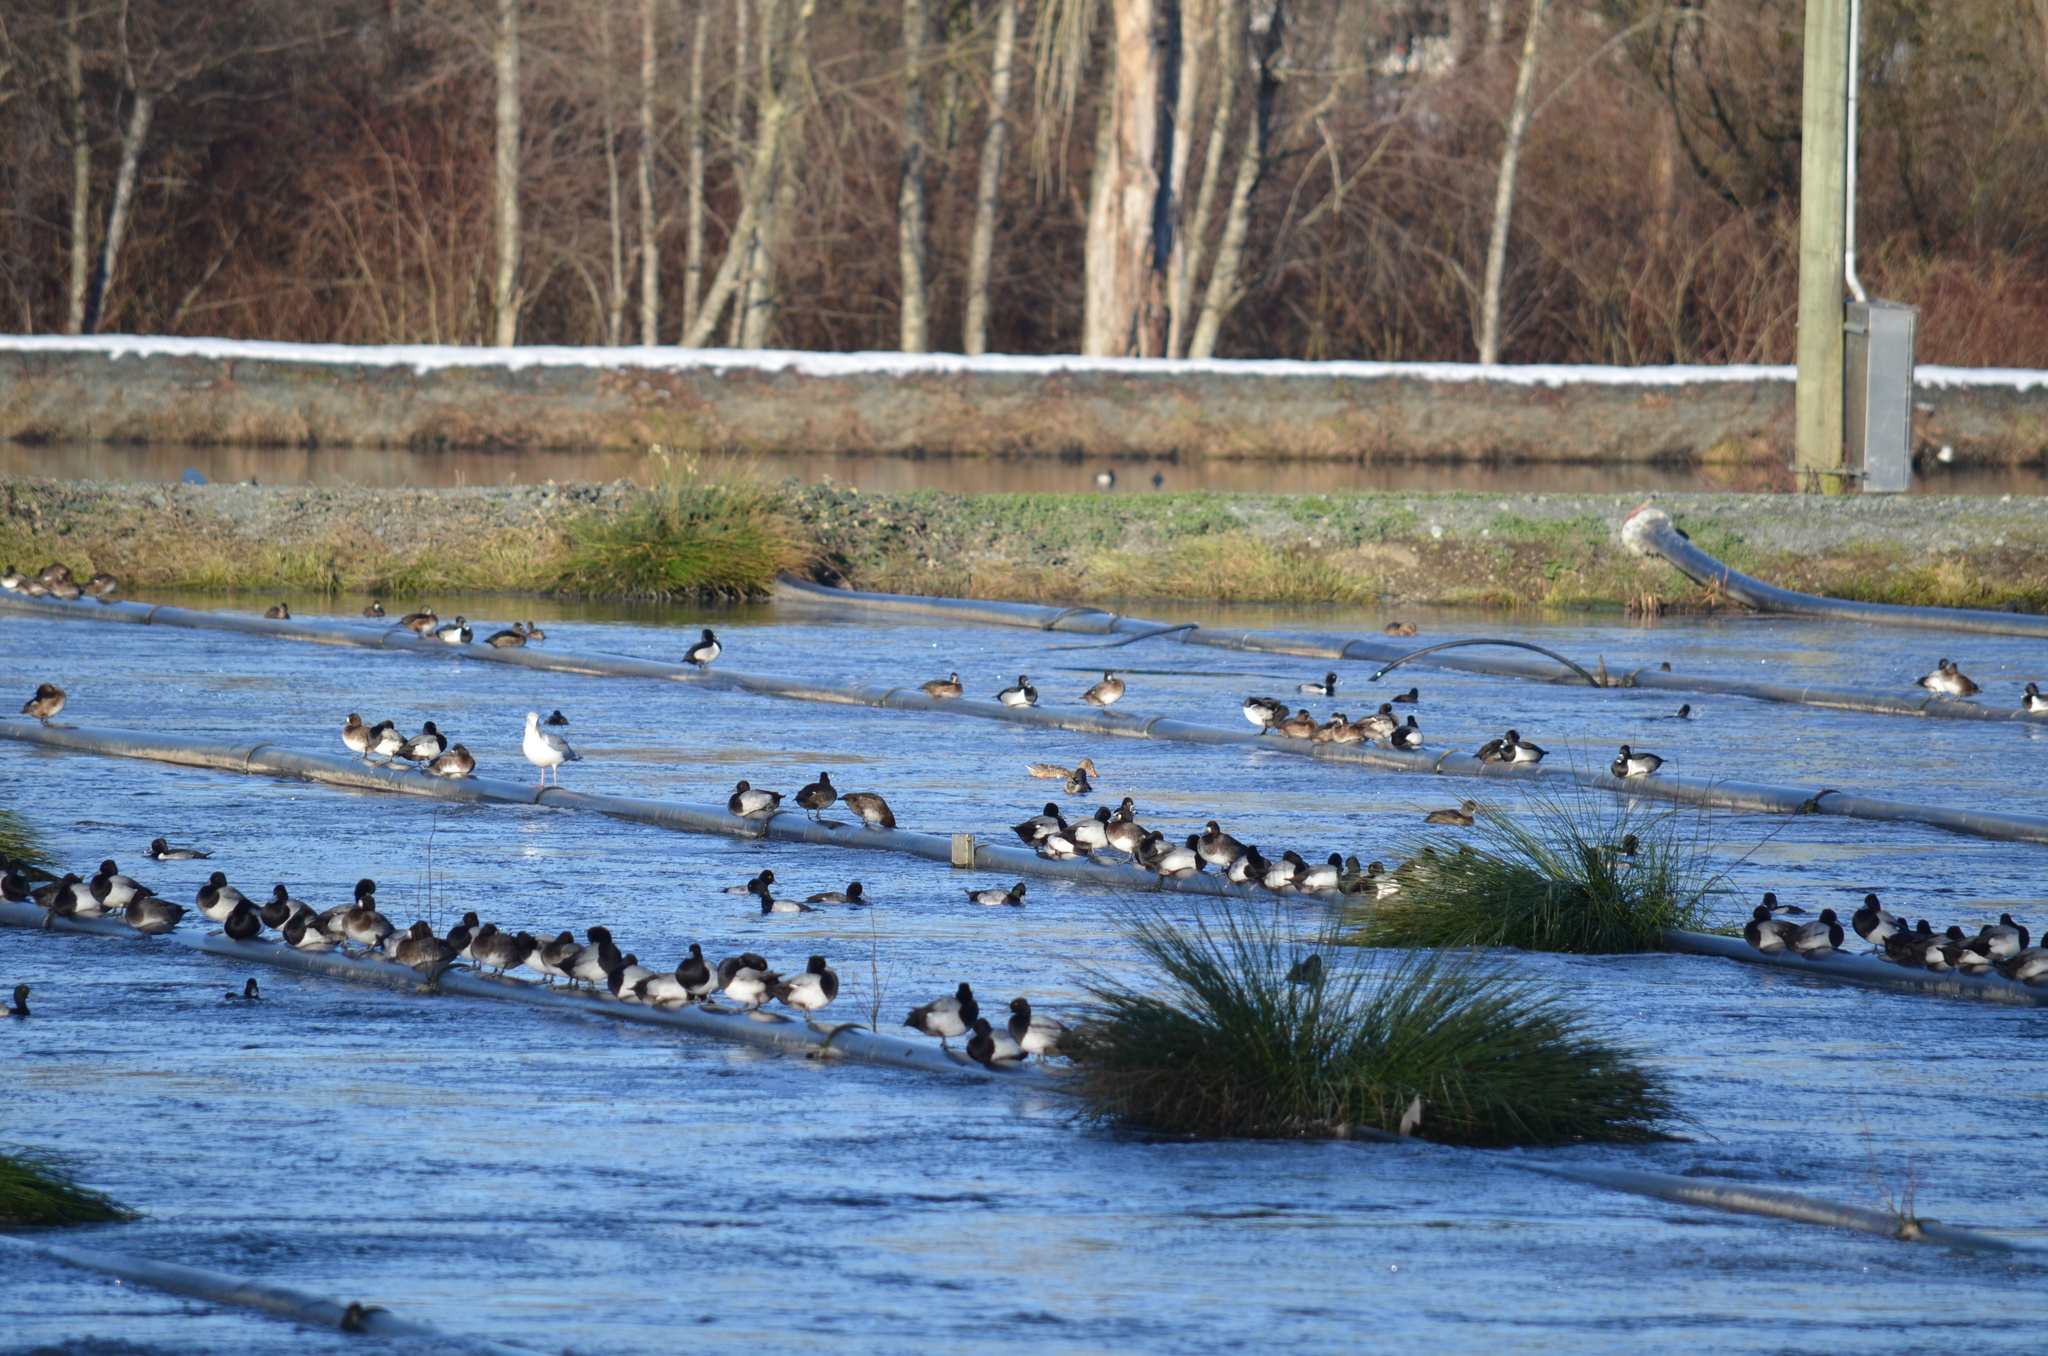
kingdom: Animalia
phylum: Chordata
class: Aves
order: Anseriformes
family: Anatidae
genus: Aythya
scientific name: Aythya affinis
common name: Lesser scaup
